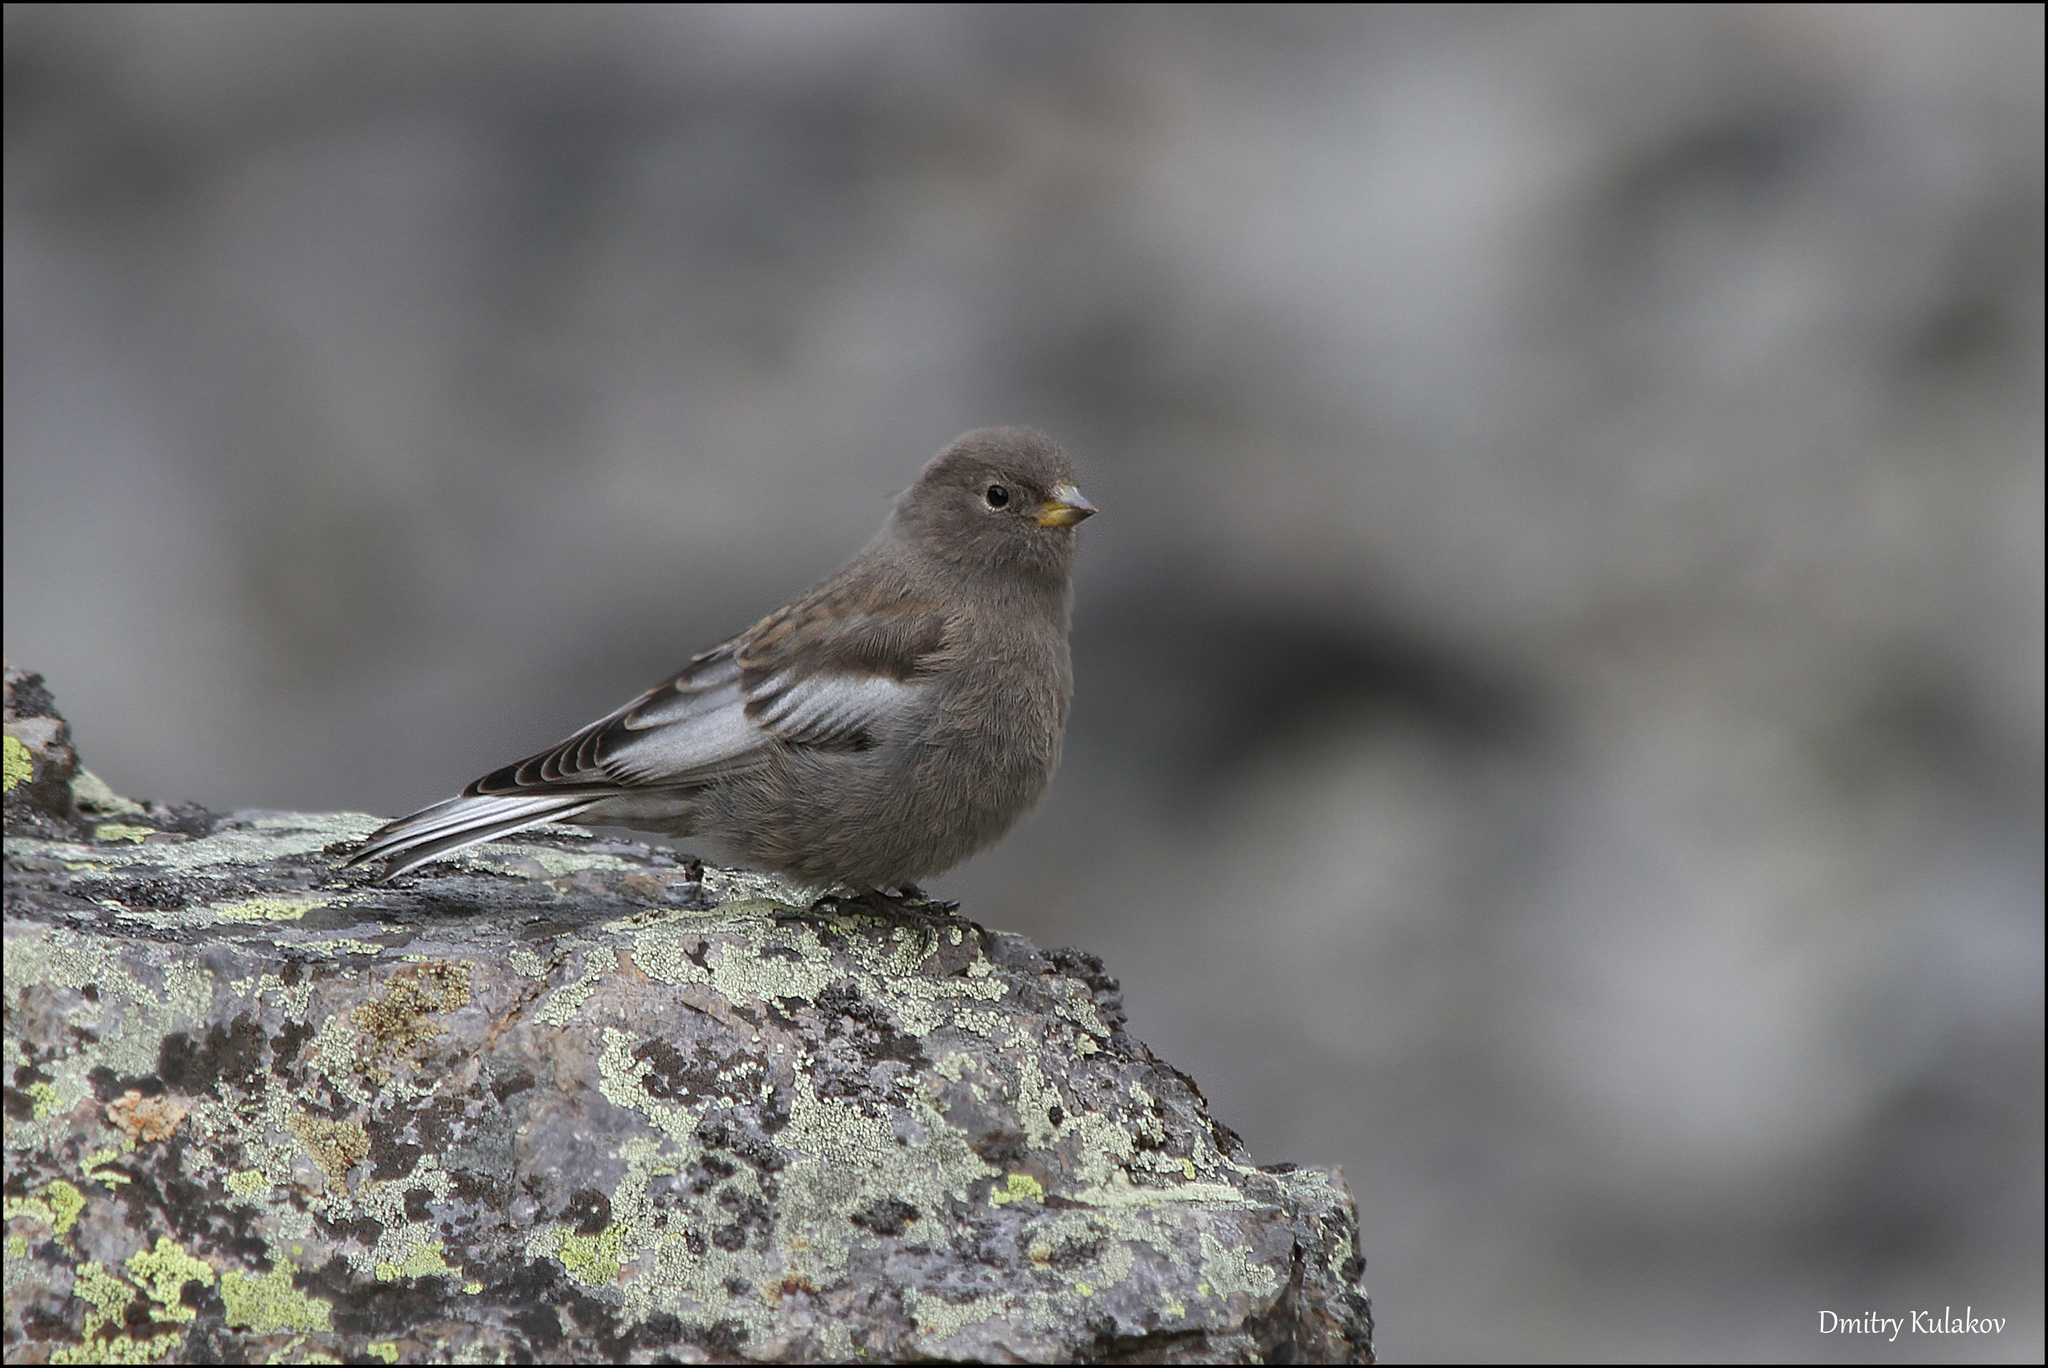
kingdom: Animalia
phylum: Chordata
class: Aves
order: Passeriformes
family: Fringillidae
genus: Leucosticte
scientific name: Leucosticte arctoa
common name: Asian rosy finch
